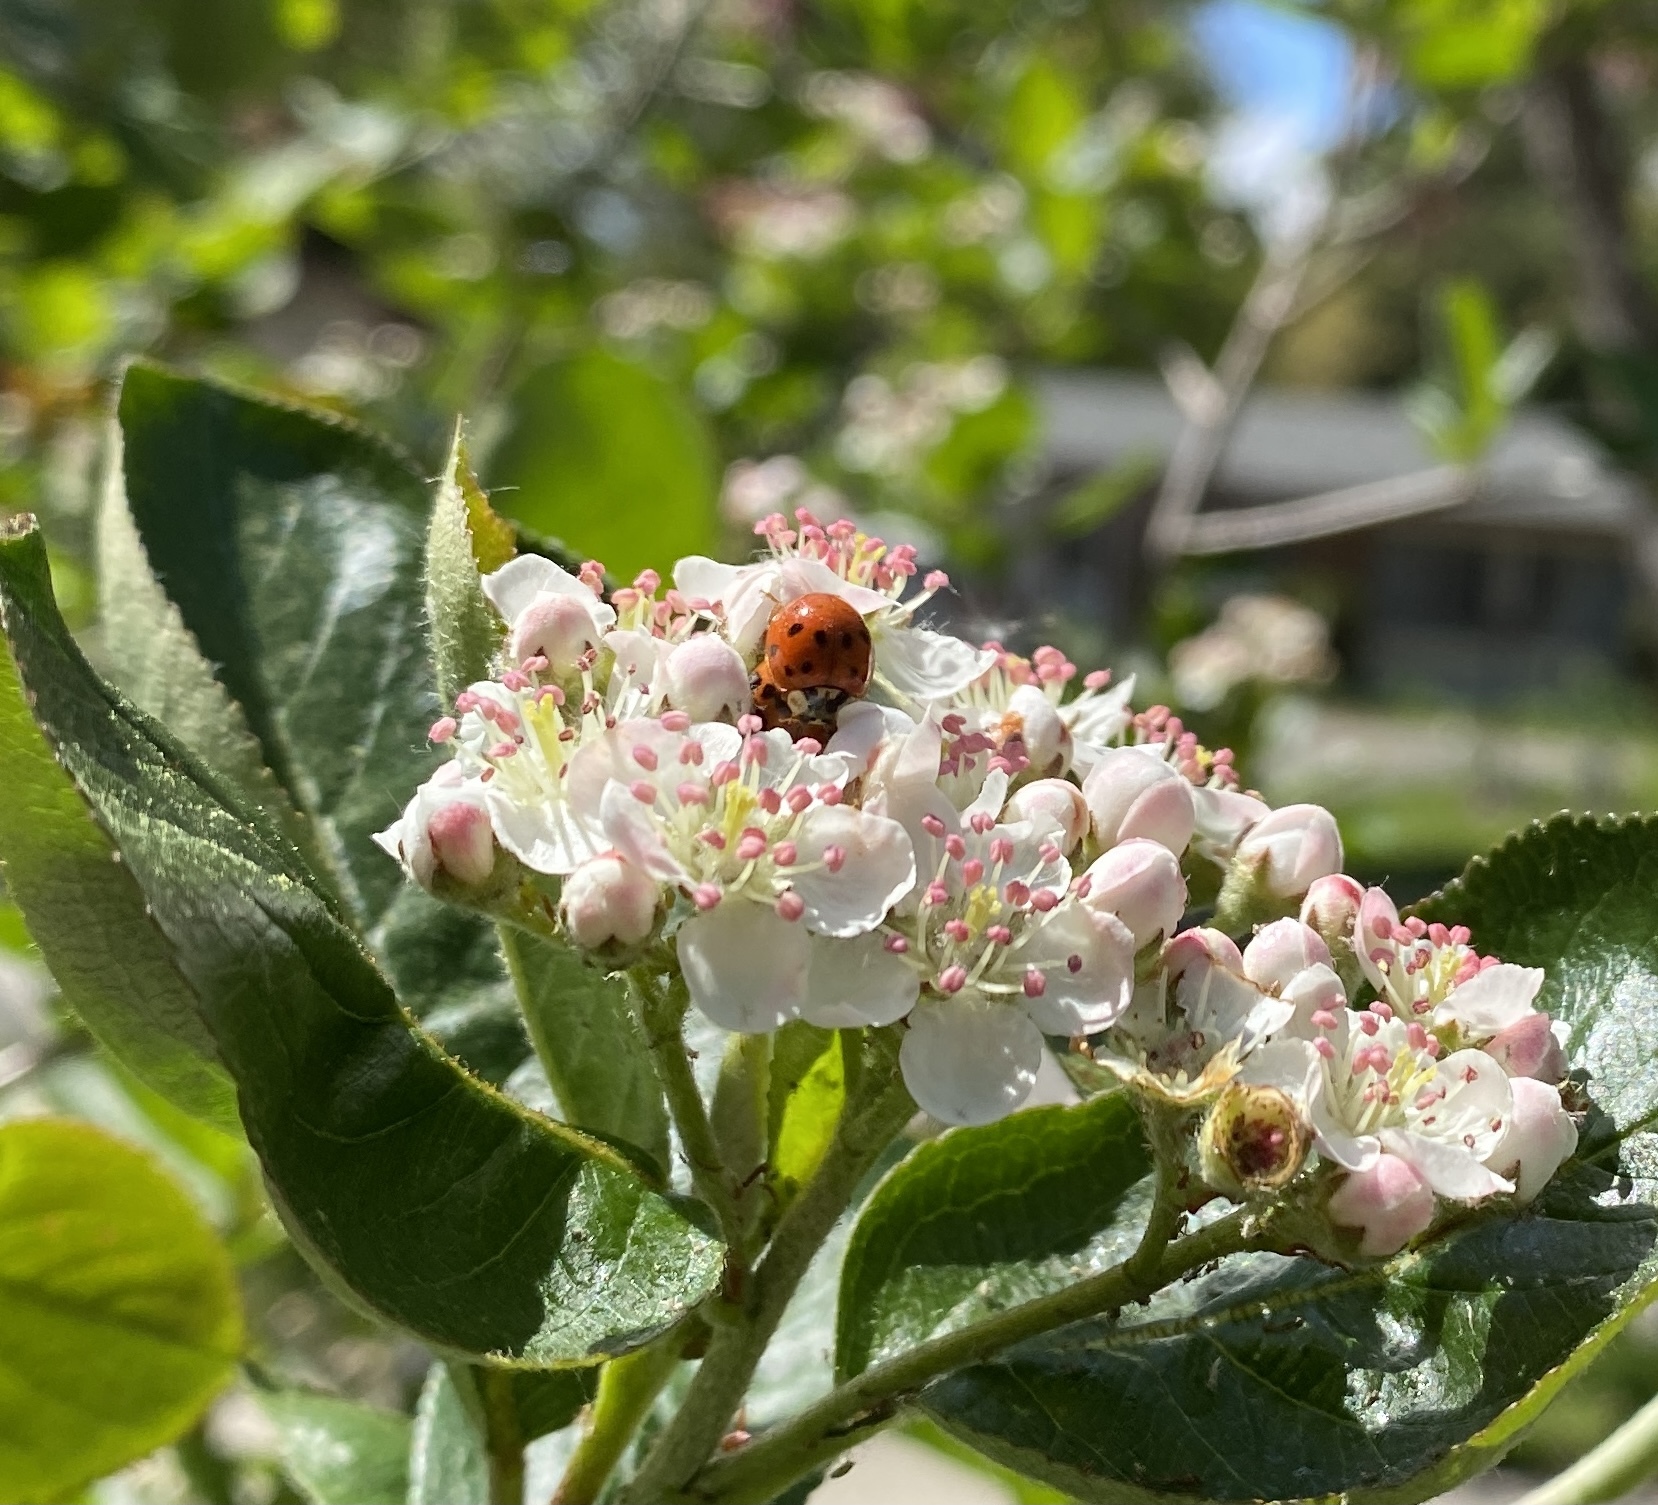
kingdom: Animalia
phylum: Arthropoda
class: Insecta
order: Coleoptera
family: Coccinellidae
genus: Harmonia
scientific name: Harmonia axyridis
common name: Harlequin ladybird
